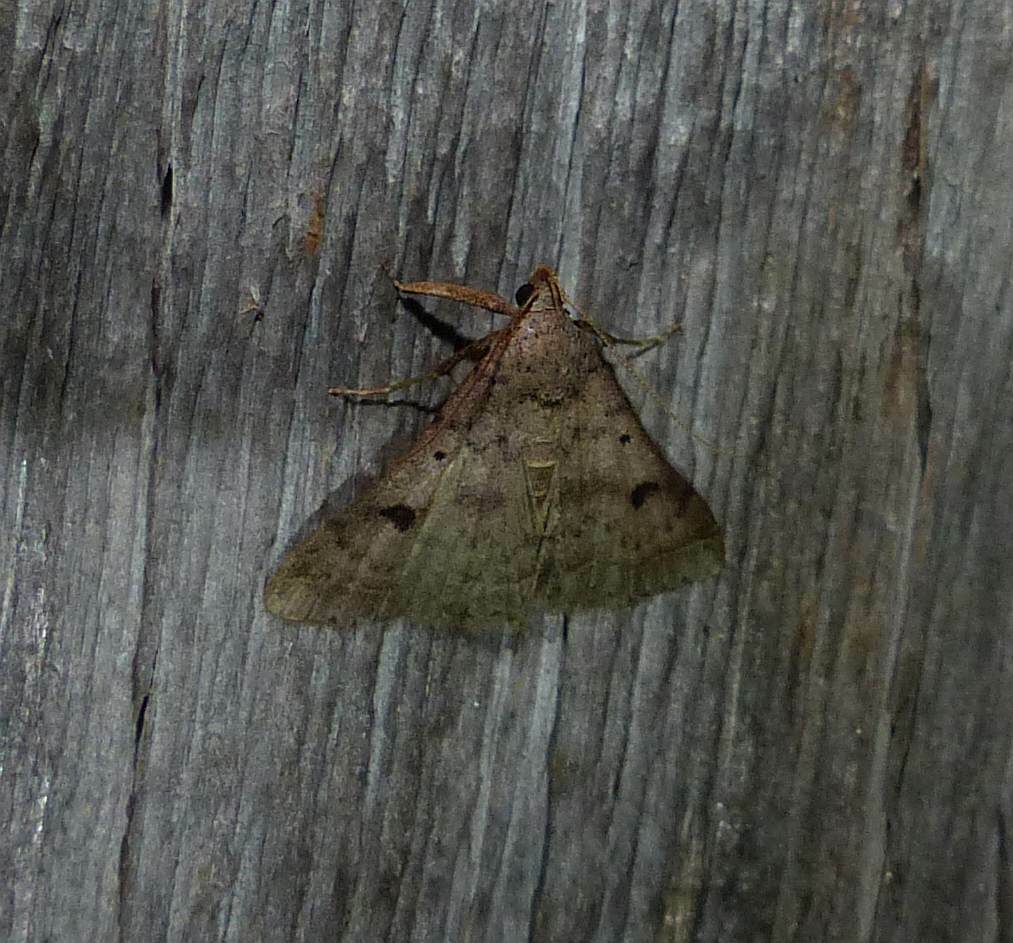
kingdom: Animalia
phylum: Arthropoda
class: Insecta
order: Lepidoptera
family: Erebidae
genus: Bleptina
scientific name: Bleptina caradrinalis
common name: Bent-winged owlet
